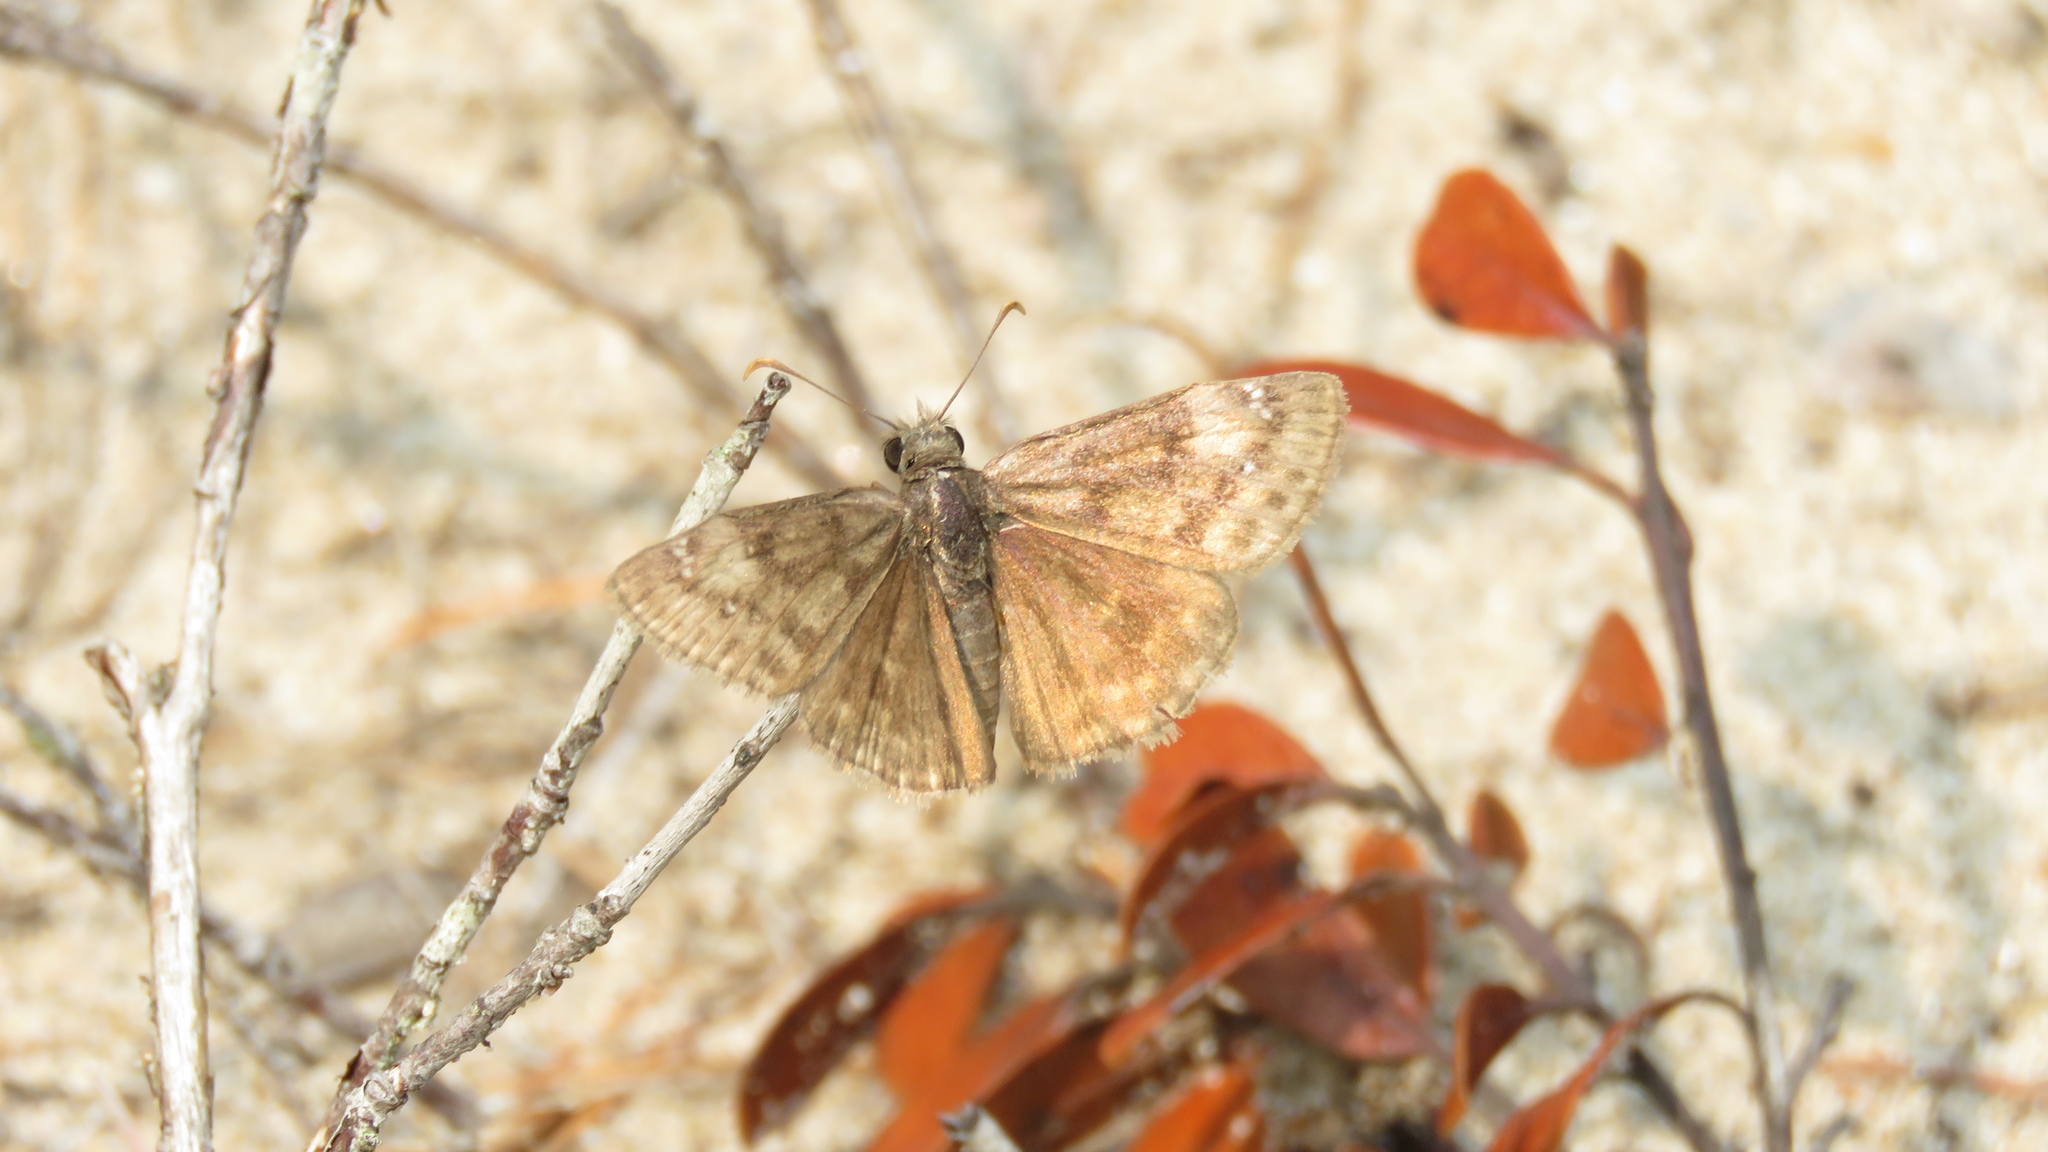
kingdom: Animalia
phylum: Arthropoda
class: Insecta
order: Lepidoptera
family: Hesperiidae
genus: Erynnis
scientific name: Erynnis baptisiae
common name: Wild indigo duskywing
